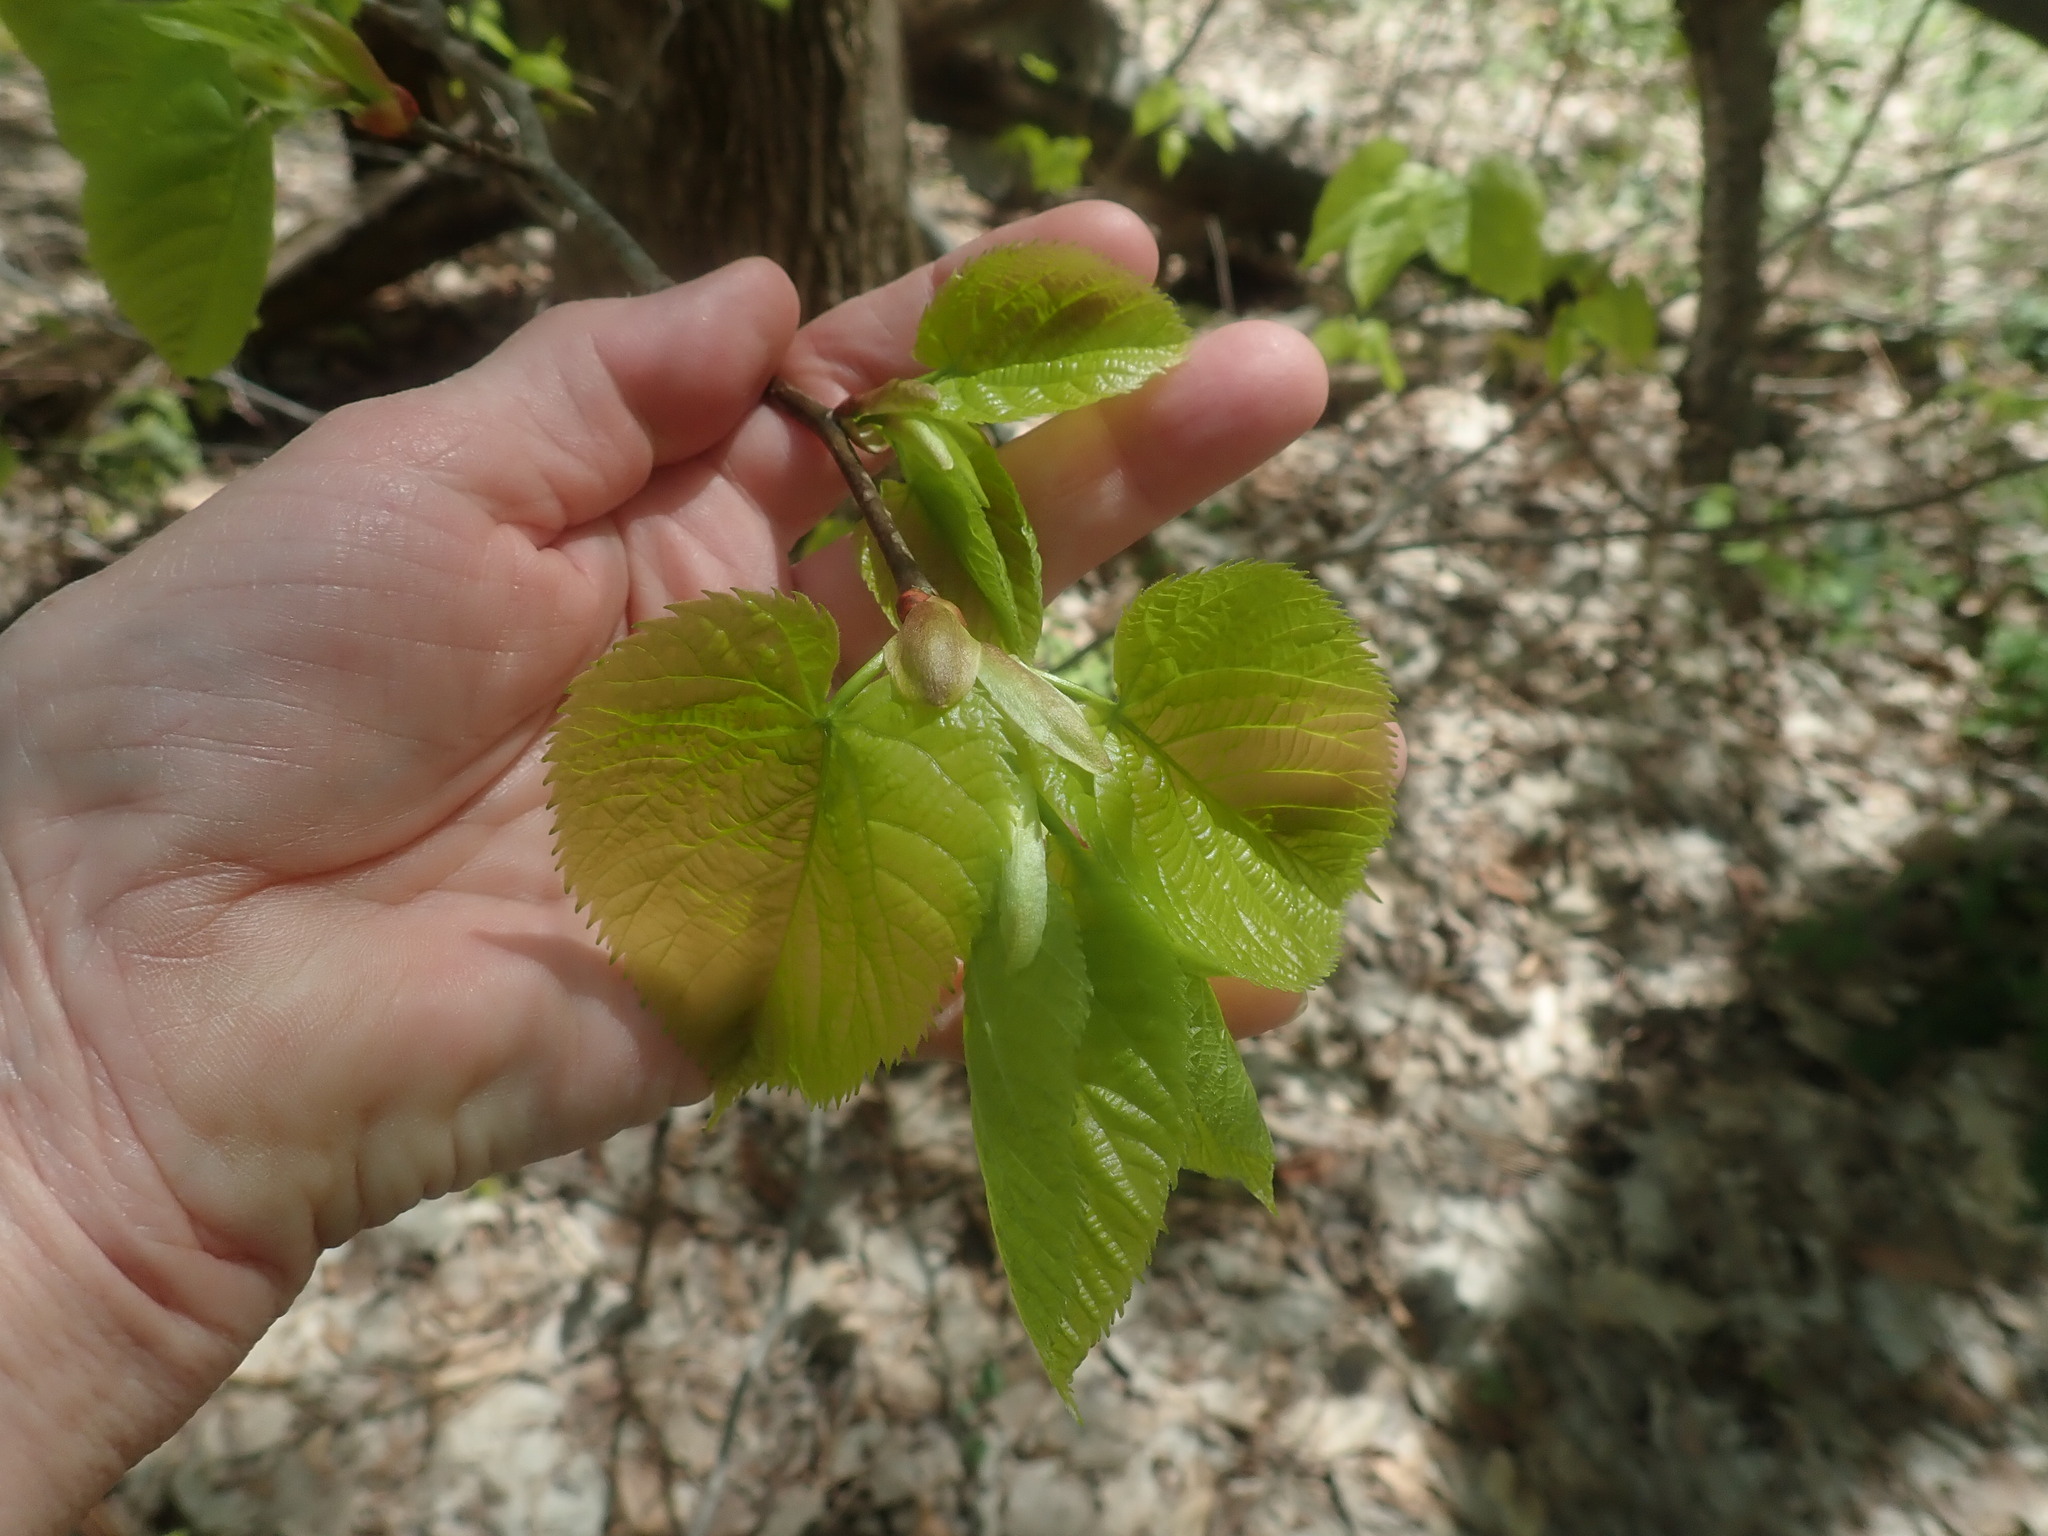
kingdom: Plantae
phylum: Tracheophyta
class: Magnoliopsida
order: Malvales
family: Malvaceae
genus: Tilia
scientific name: Tilia americana
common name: Basswood
